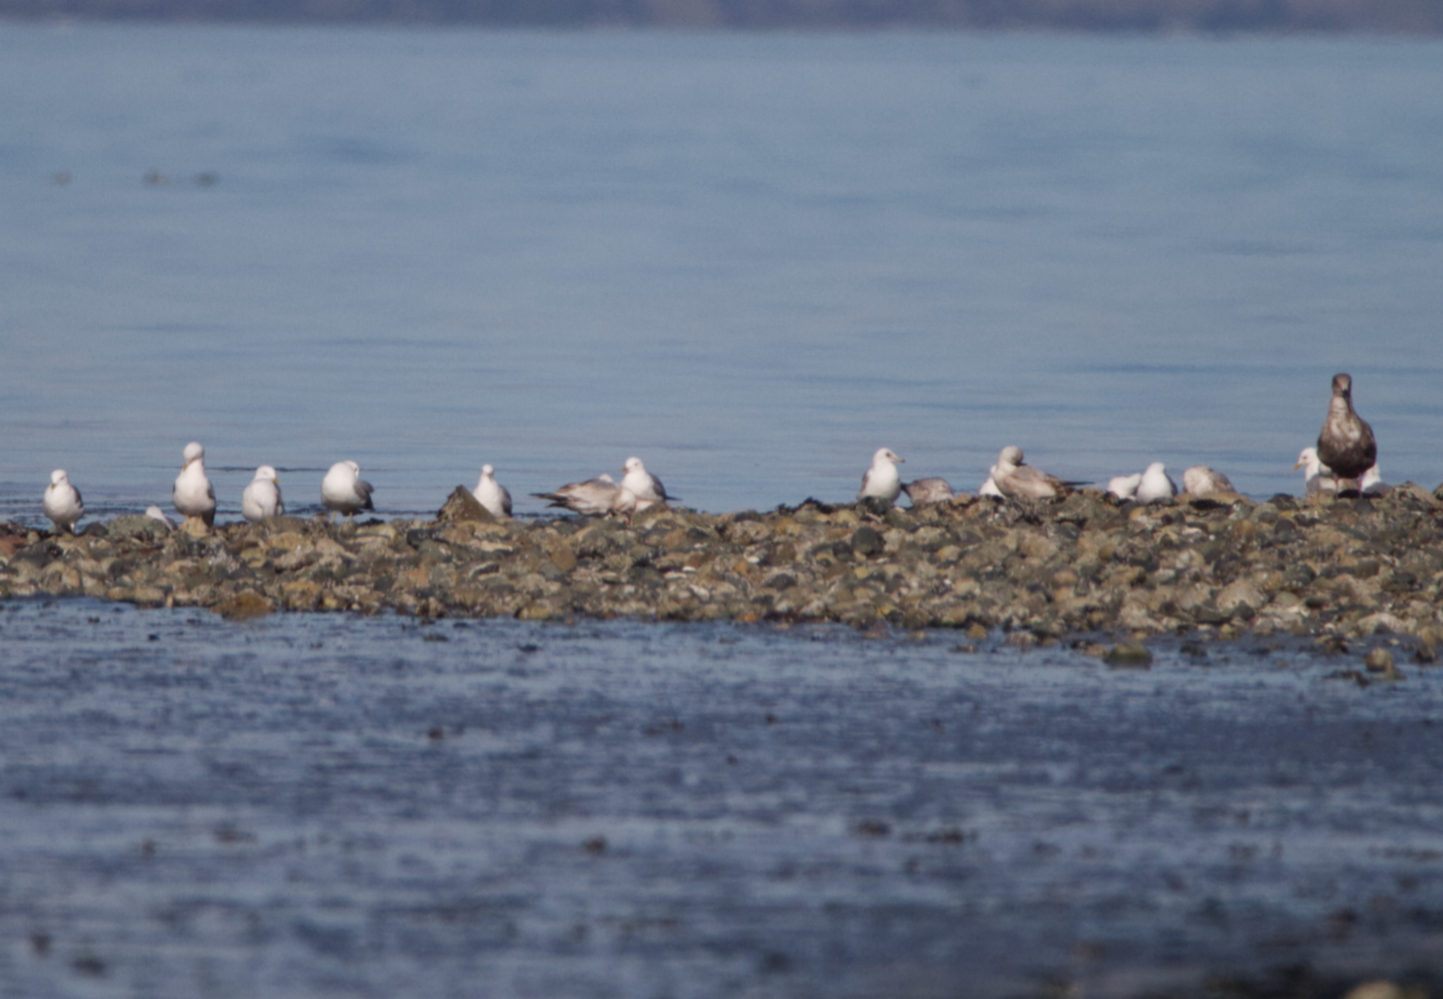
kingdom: Animalia
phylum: Chordata
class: Aves
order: Charadriiformes
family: Laridae
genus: Larus
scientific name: Larus brachyrhynchus
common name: Short-billed gull
